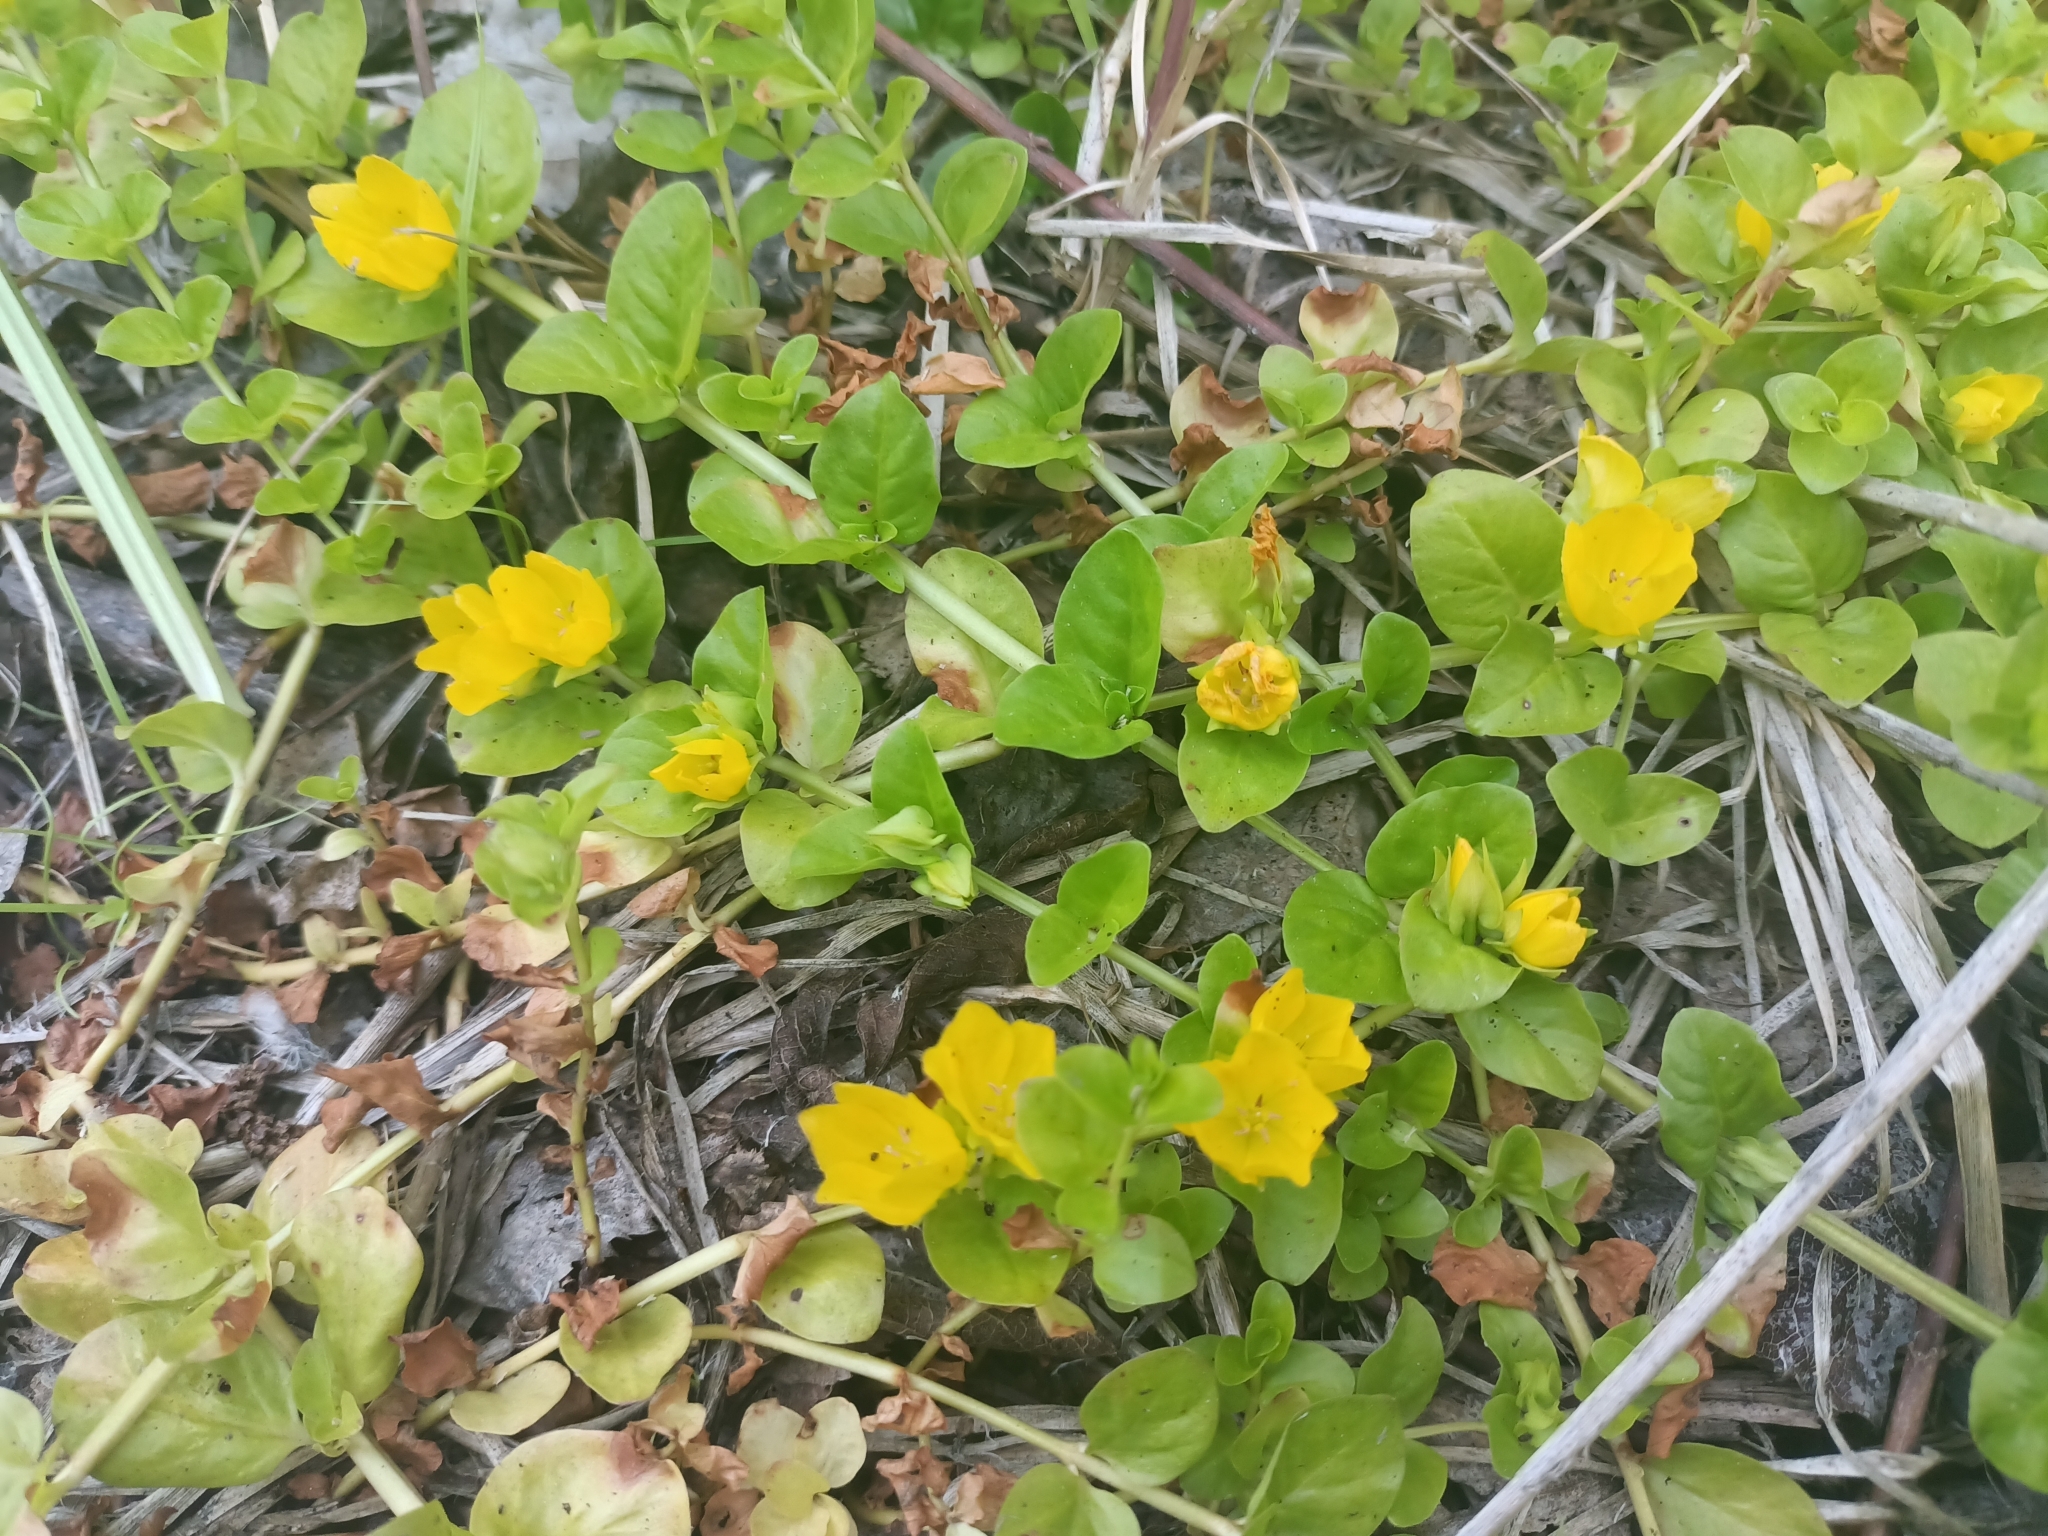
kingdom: Plantae
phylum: Tracheophyta
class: Magnoliopsida
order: Ericales
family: Primulaceae
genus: Lysimachia
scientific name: Lysimachia nummularia
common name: Moneywort
